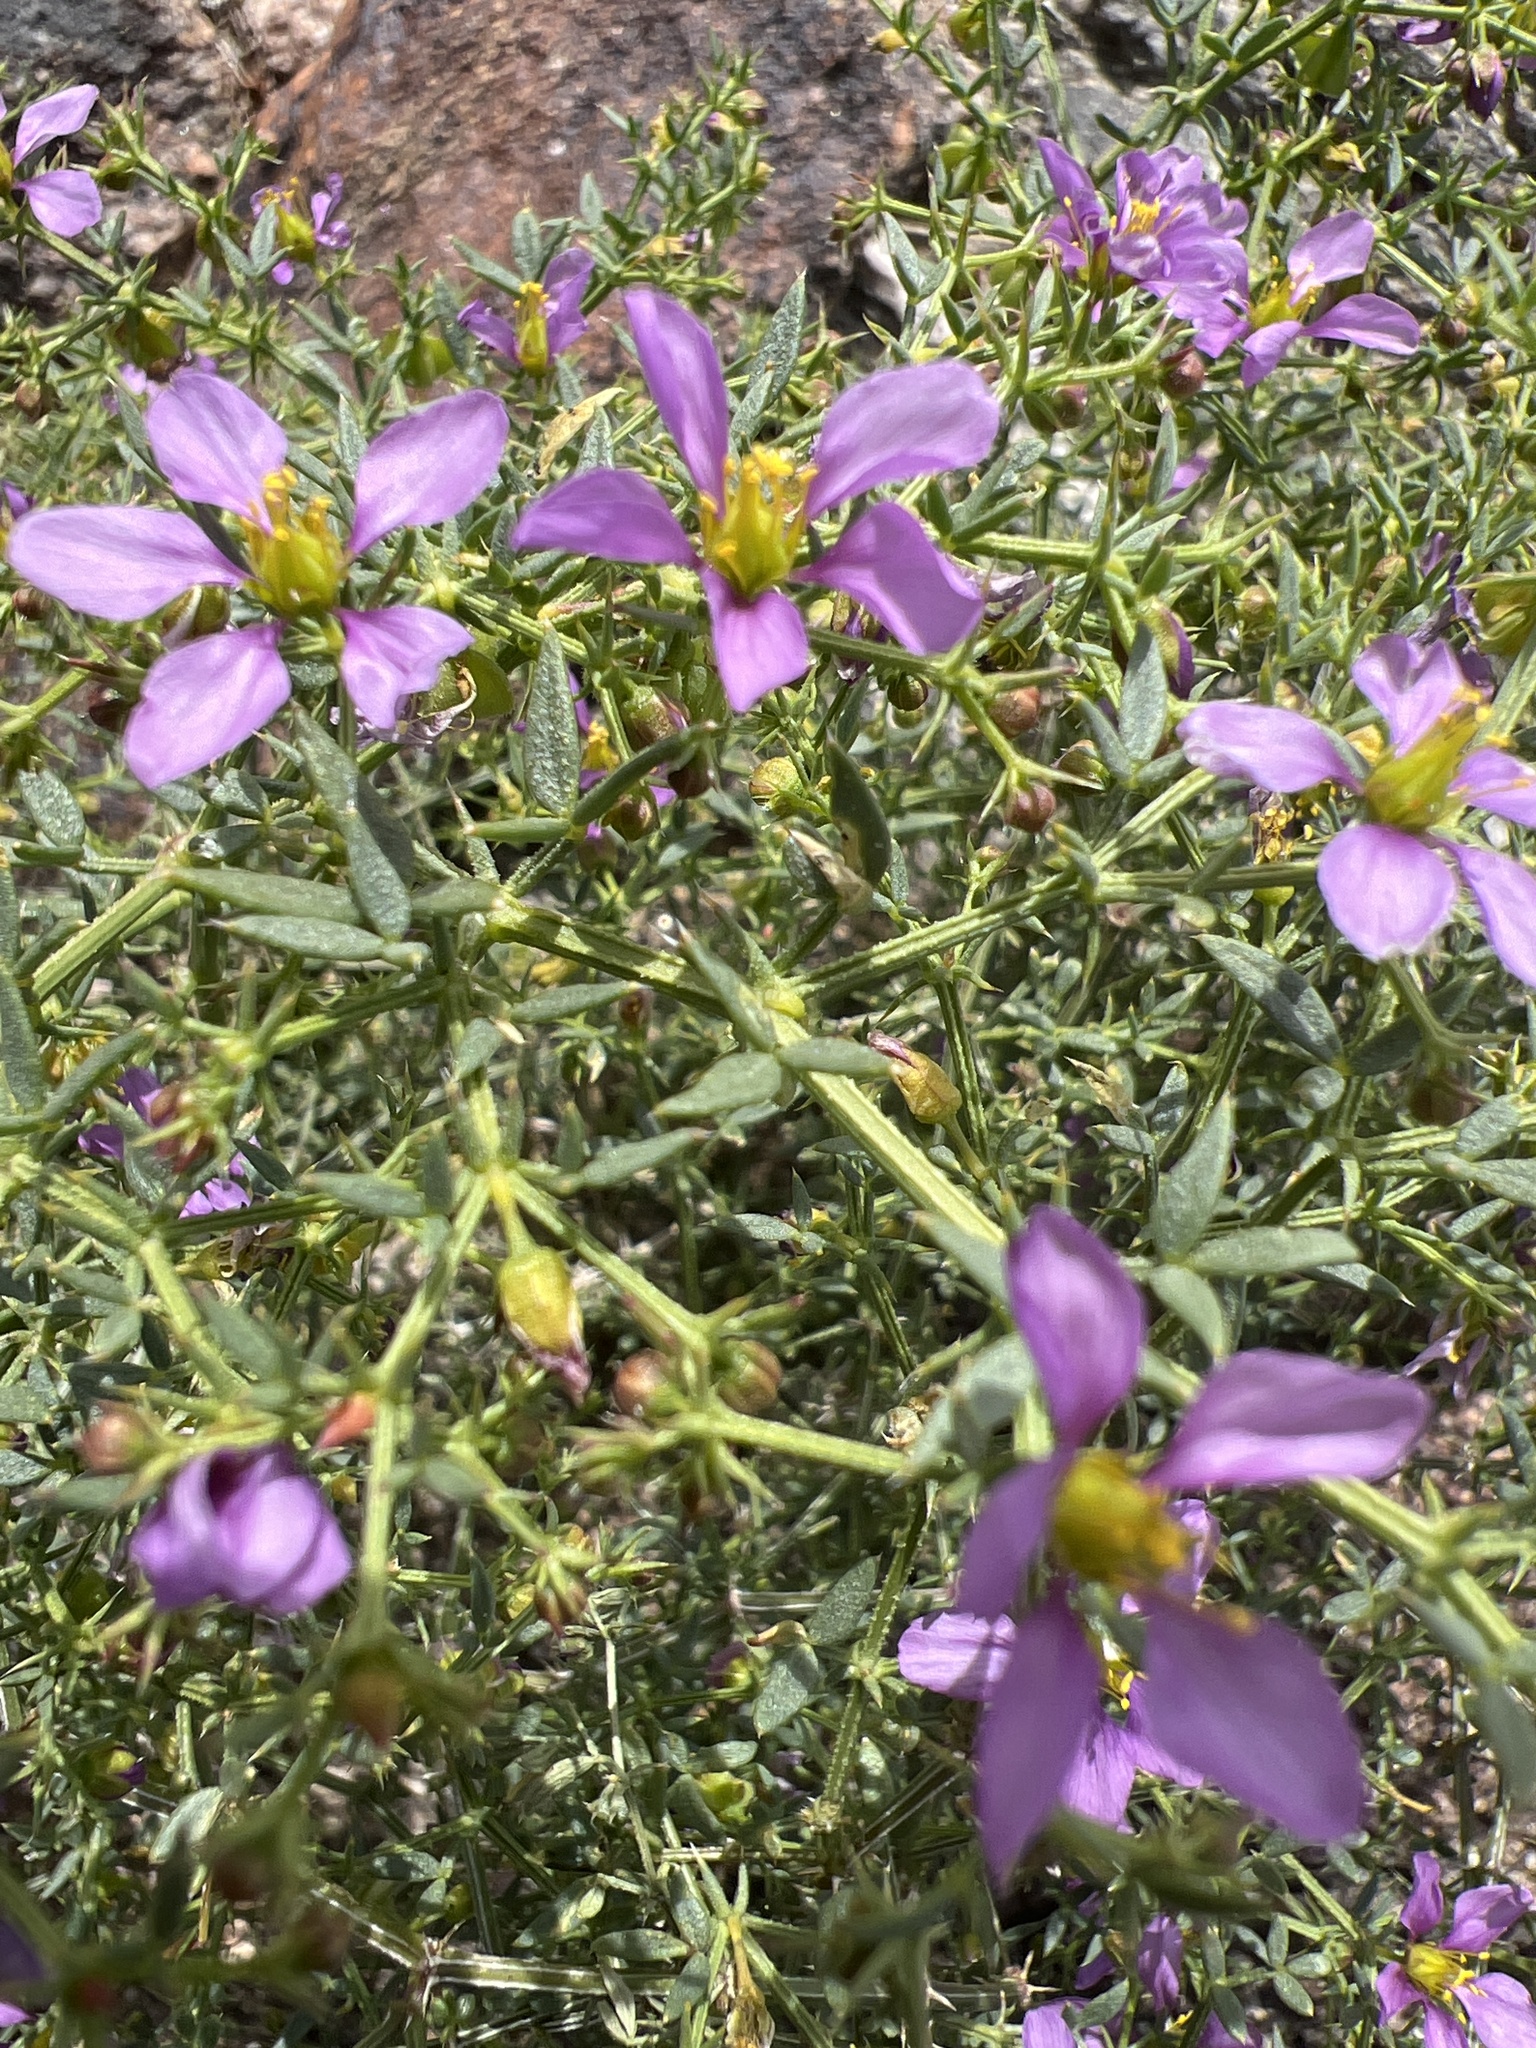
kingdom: Plantae
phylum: Tracheophyta
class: Magnoliopsida
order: Zygophyllales
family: Zygophyllaceae
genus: Fagonia
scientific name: Fagonia laevis
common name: California fagonbush
